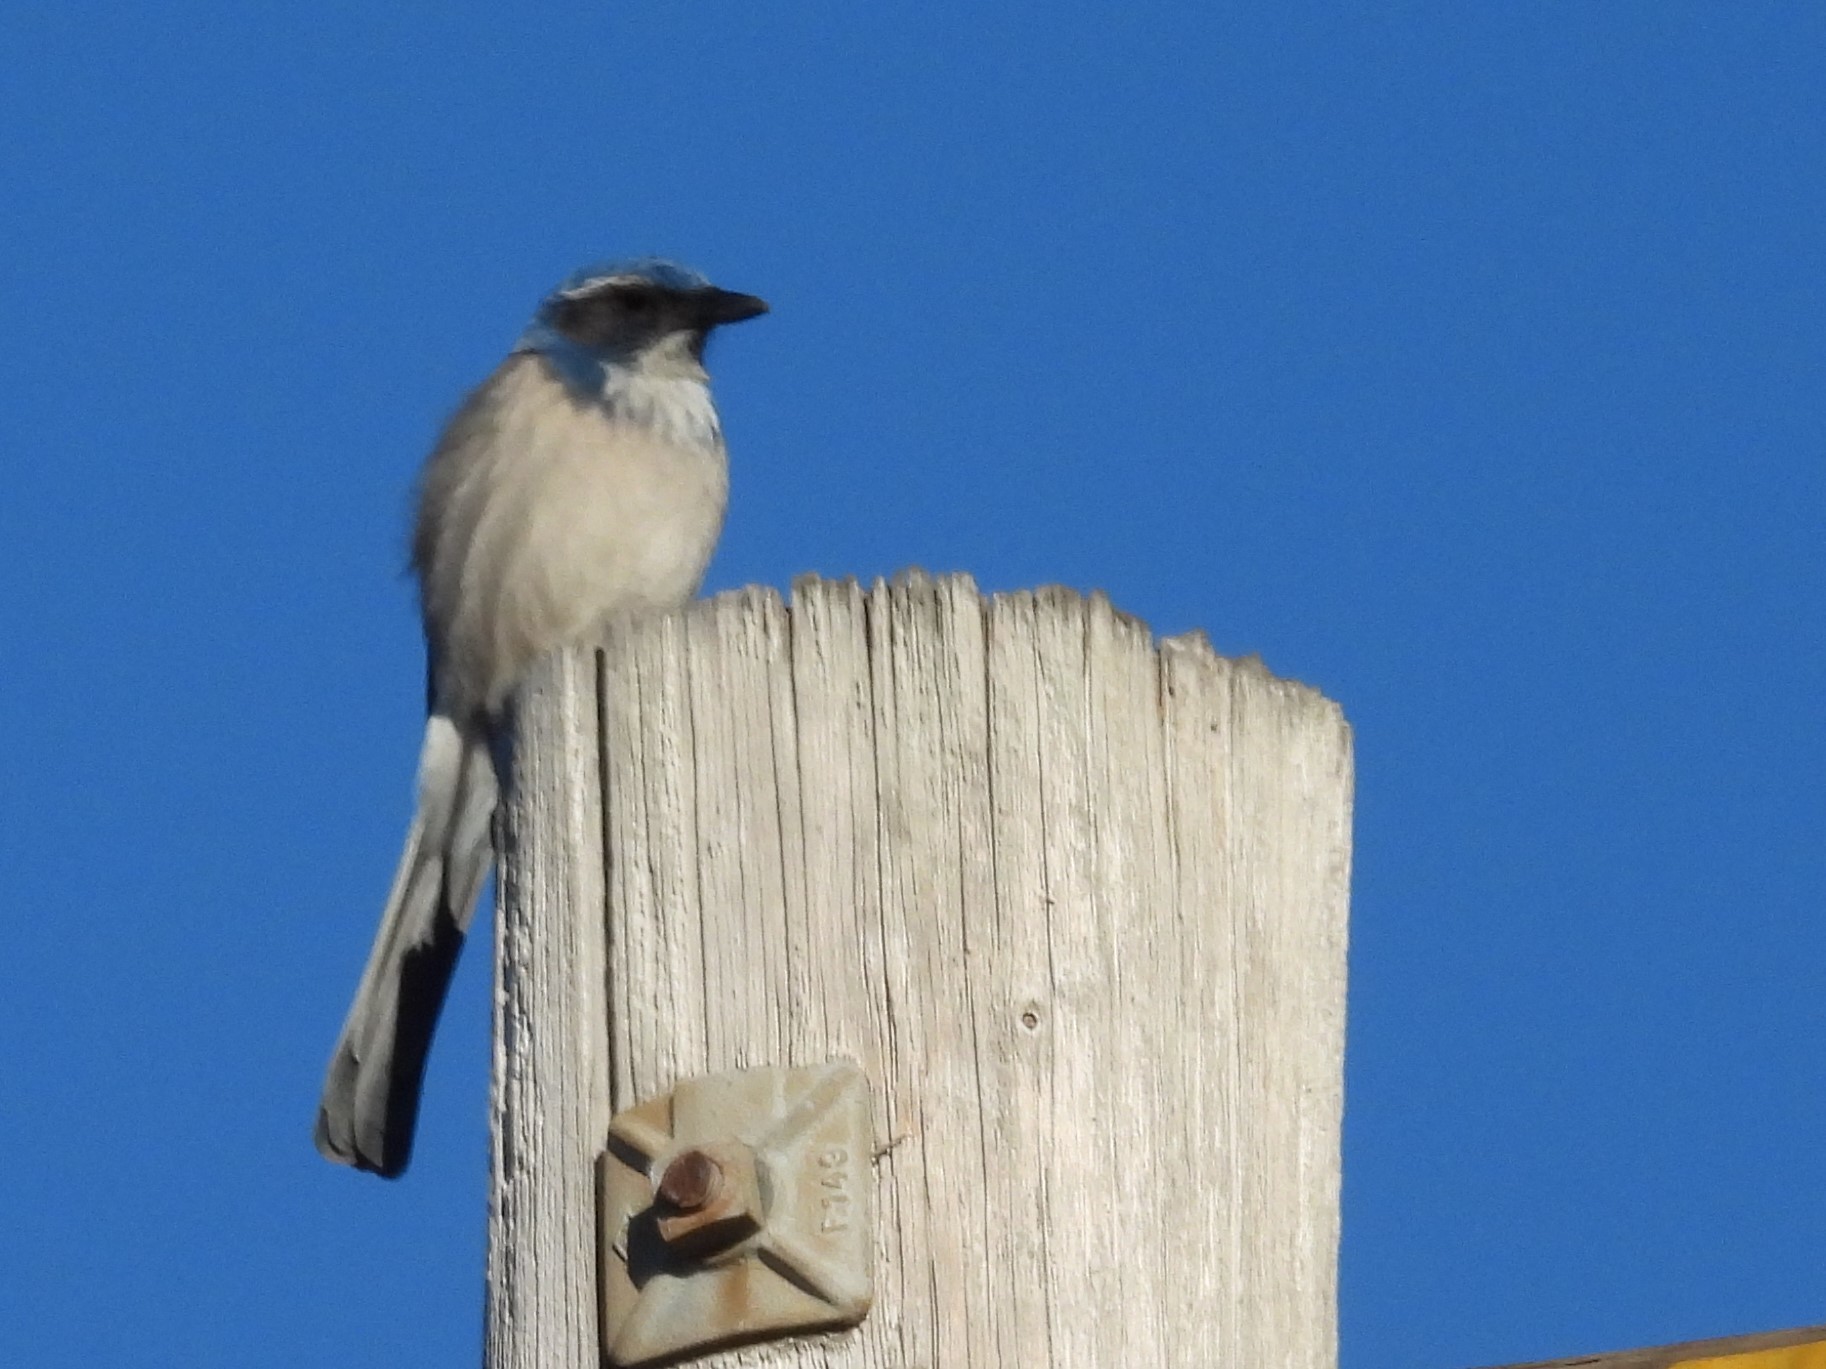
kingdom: Animalia
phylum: Chordata
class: Aves
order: Passeriformes
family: Corvidae
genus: Aphelocoma
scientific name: Aphelocoma californica
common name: California scrub-jay
